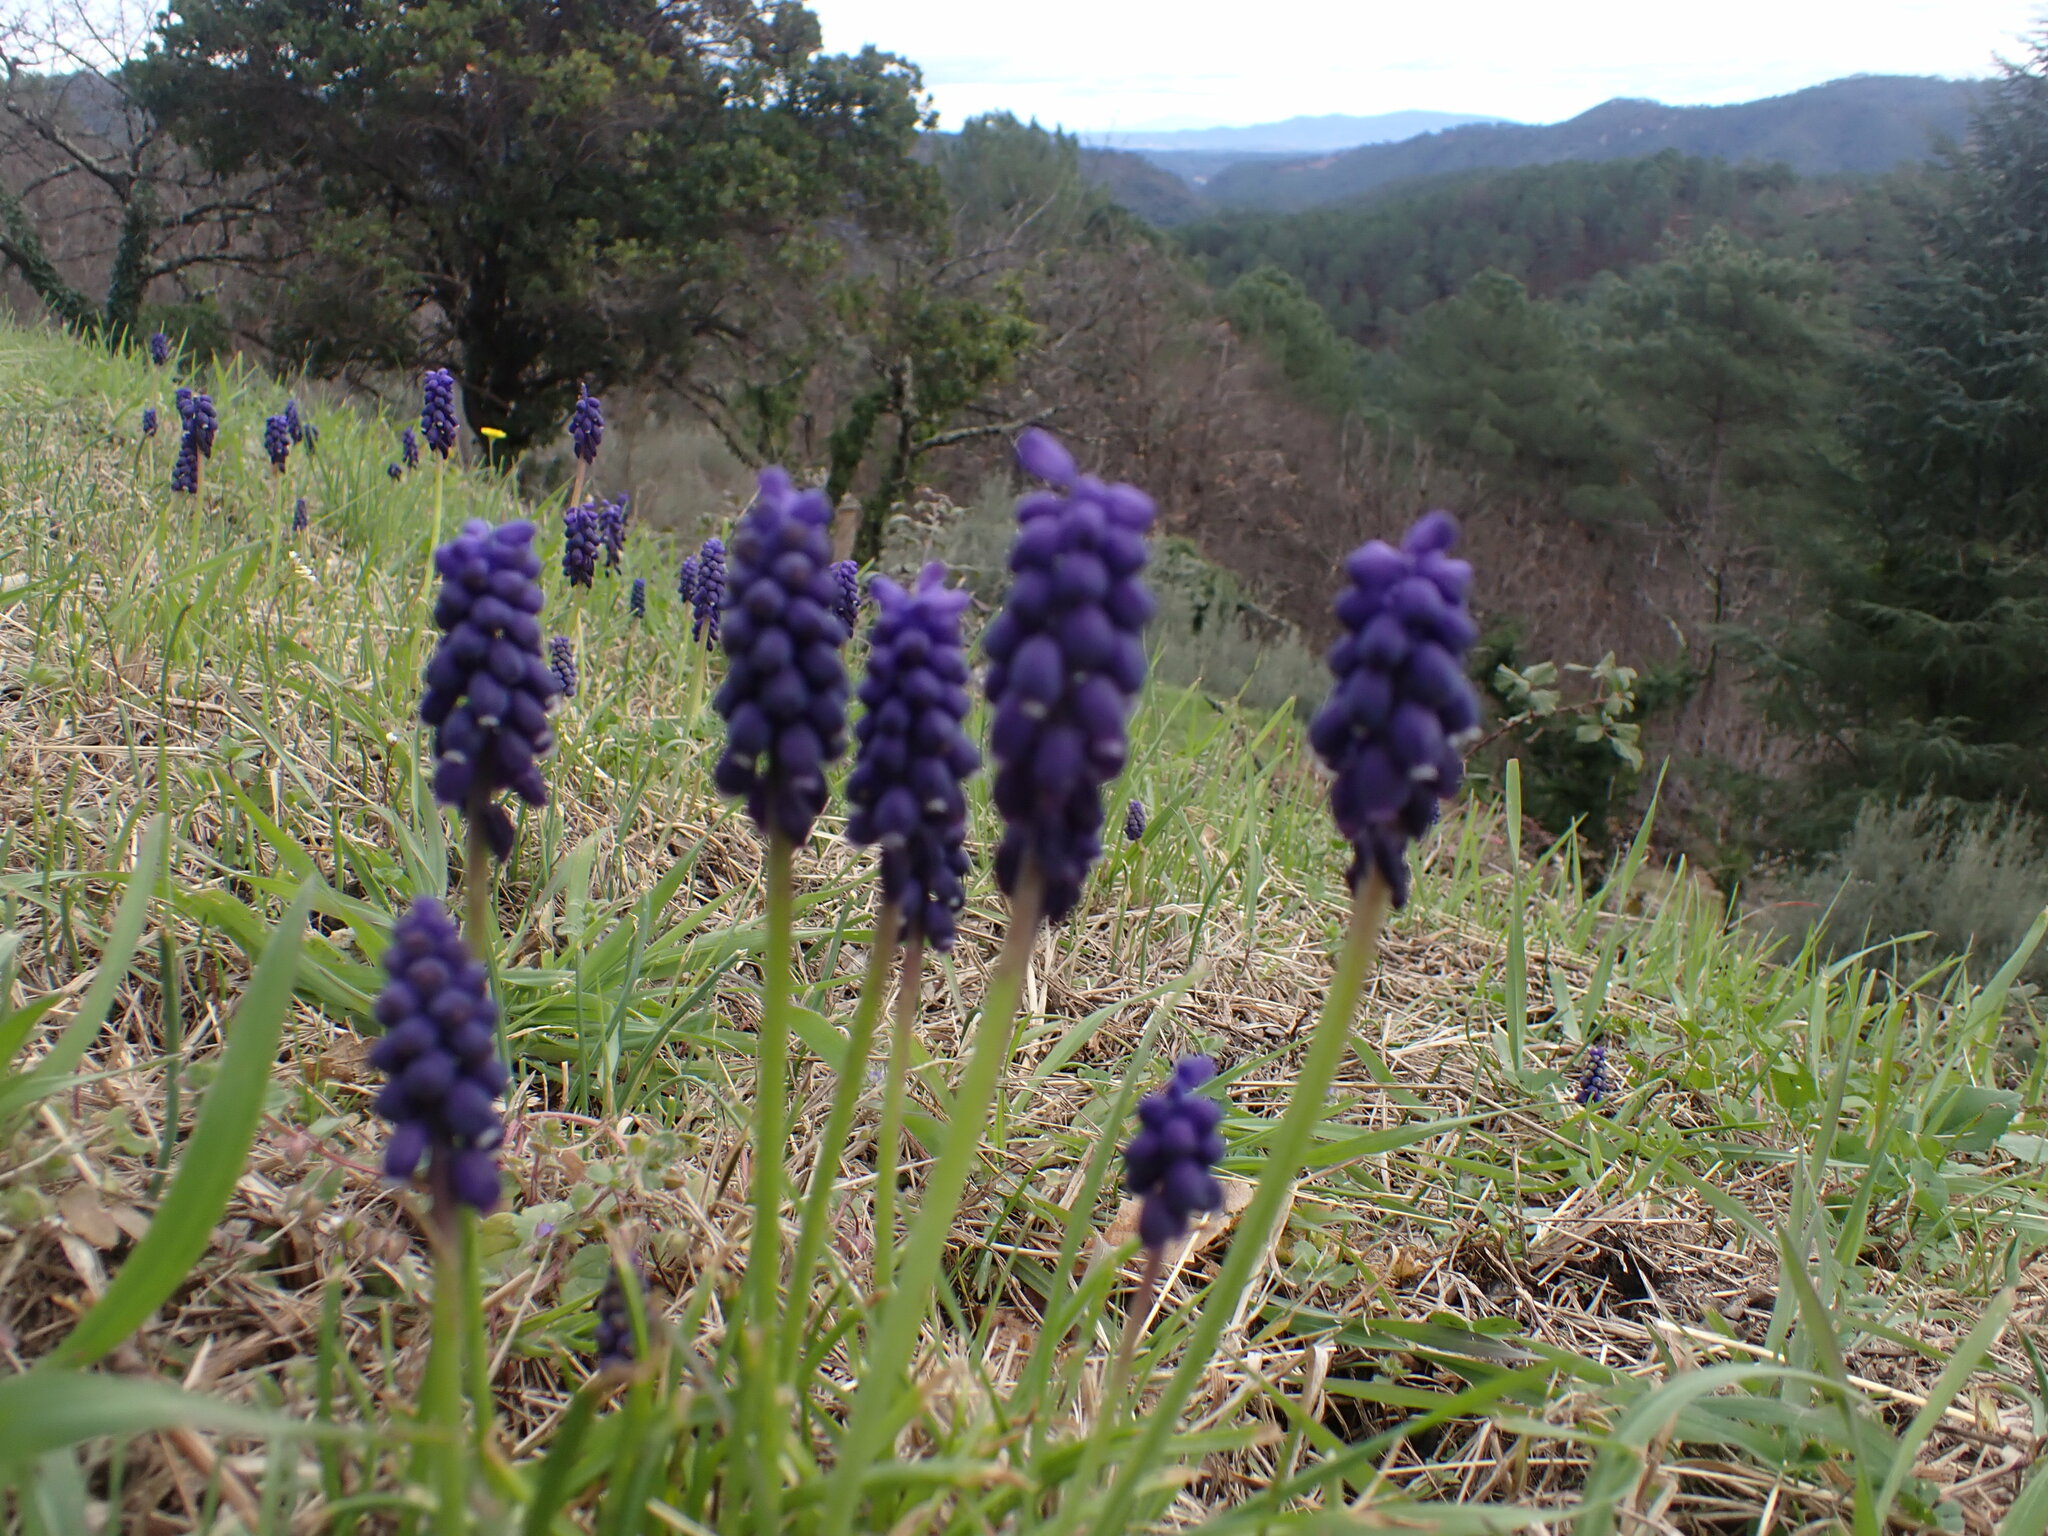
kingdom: Plantae
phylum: Tracheophyta
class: Liliopsida
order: Asparagales
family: Asparagaceae
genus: Muscari
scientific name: Muscari neglectum
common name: Grape-hyacinth
